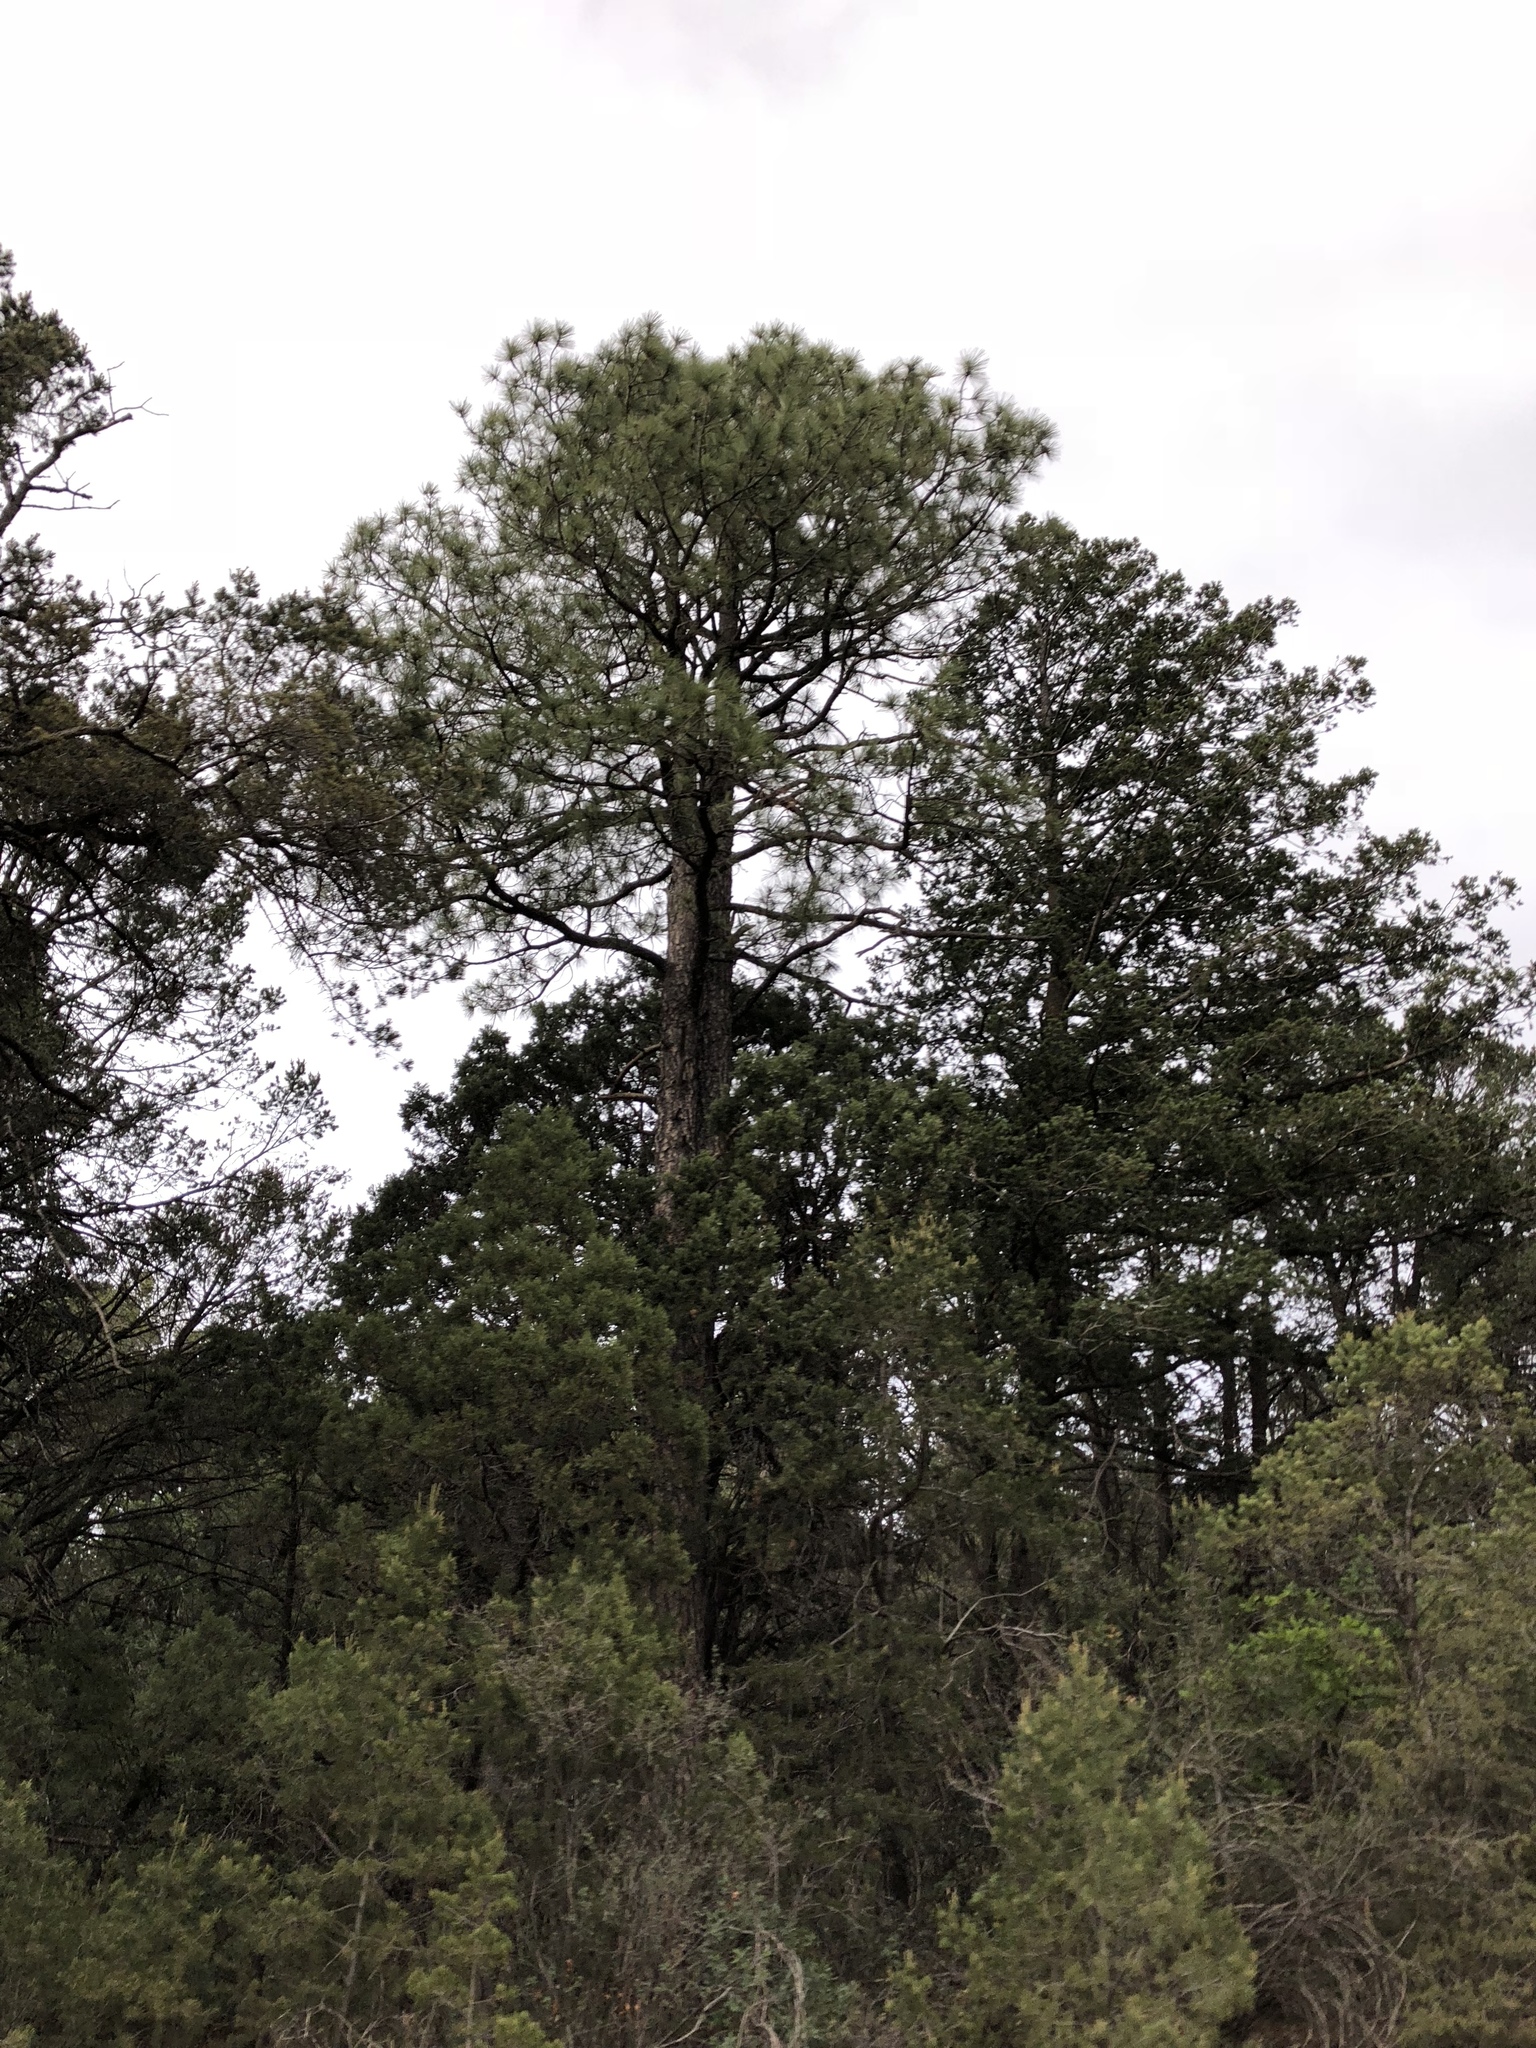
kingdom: Plantae
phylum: Tracheophyta
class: Pinopsida
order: Pinales
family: Pinaceae
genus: Pinus
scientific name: Pinus ponderosa
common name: Western yellow-pine
